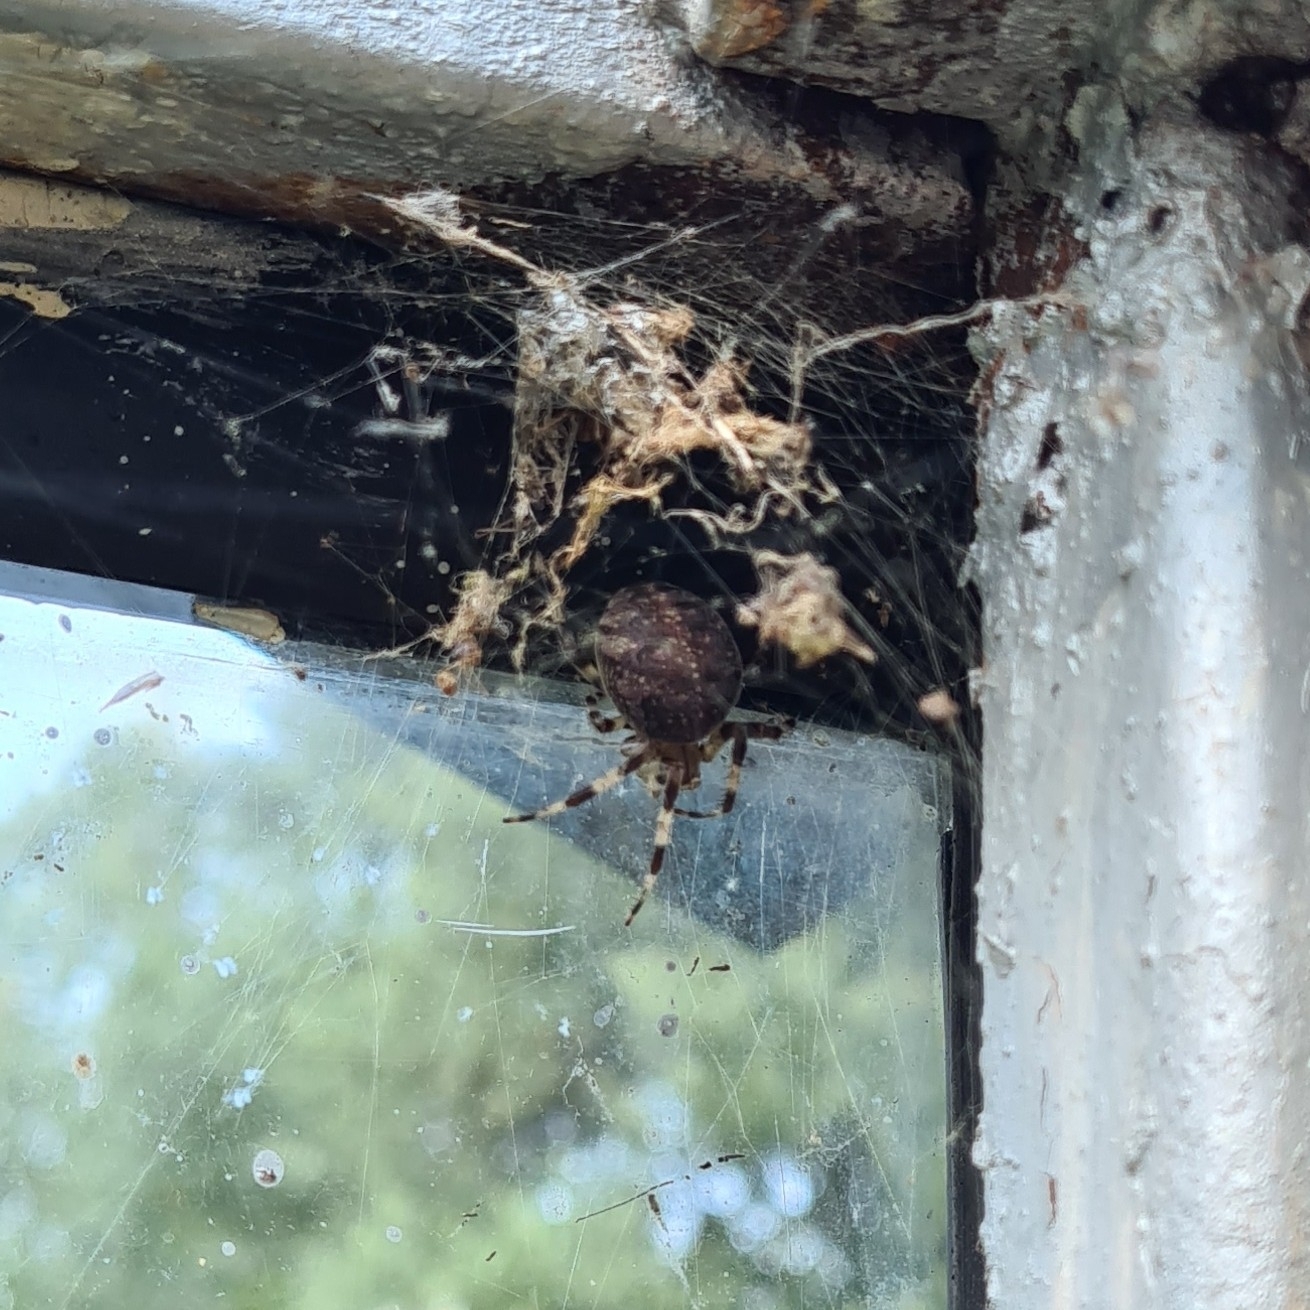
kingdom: Animalia
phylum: Arthropoda
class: Arachnida
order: Araneae
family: Araneidae
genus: Araneus
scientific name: Araneus marmoreus
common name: Marbled orbweaver
